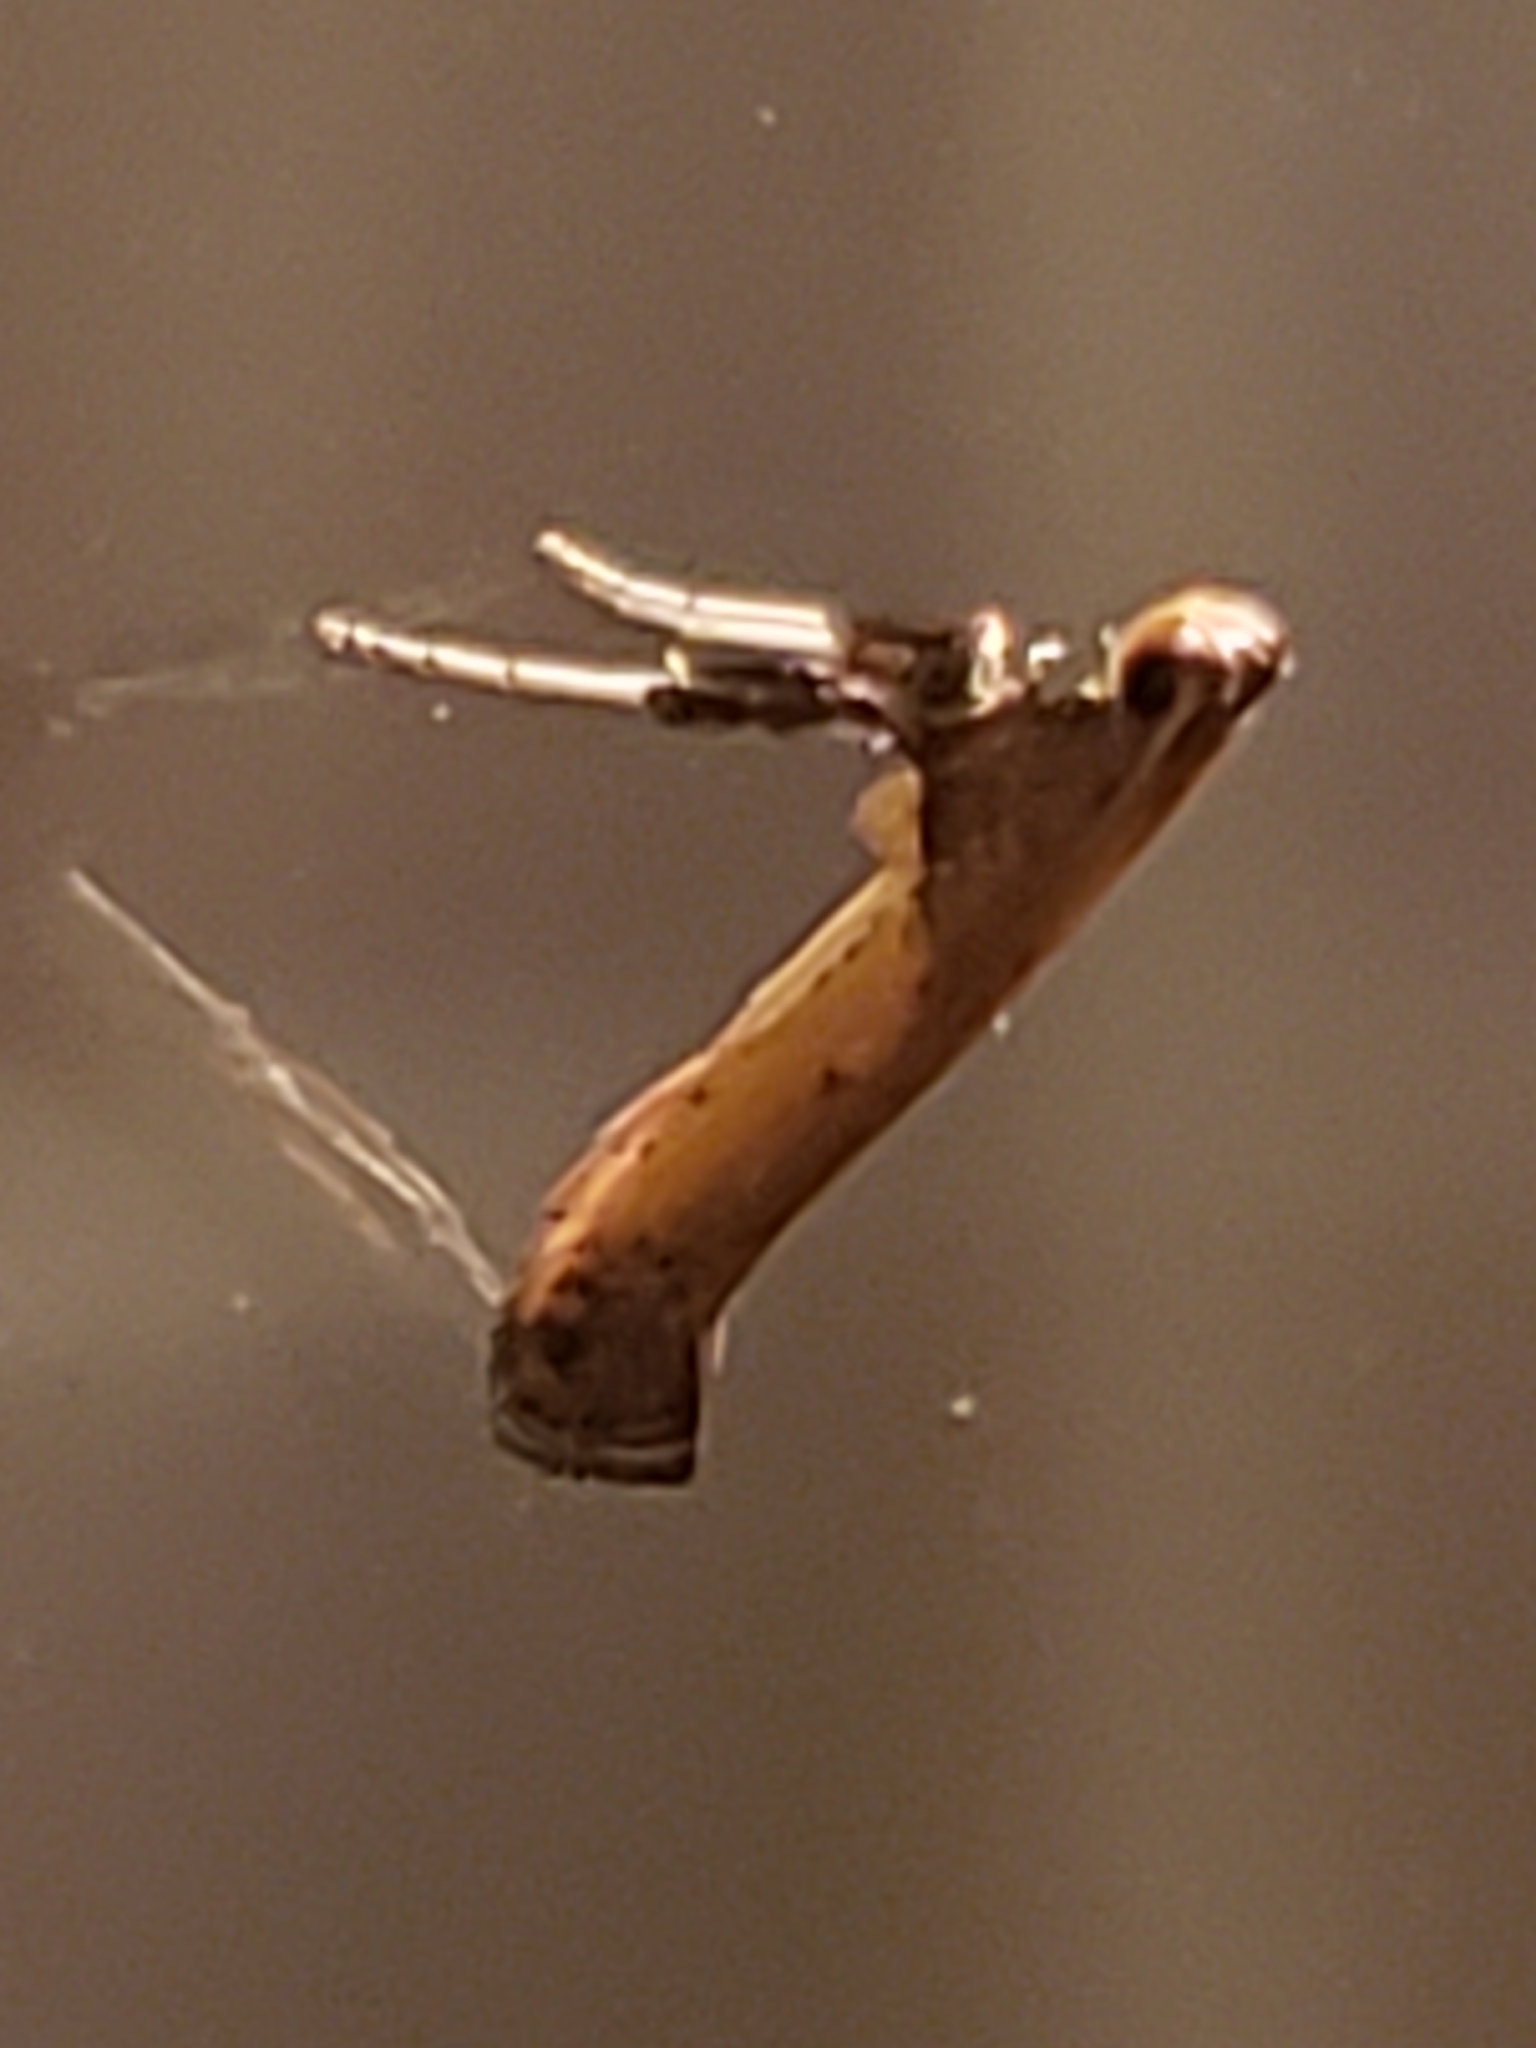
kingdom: Animalia
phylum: Arthropoda
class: Insecta
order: Lepidoptera
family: Gracillariidae
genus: Caloptilia
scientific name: Caloptilia azaleella
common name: Azalea leafminer
